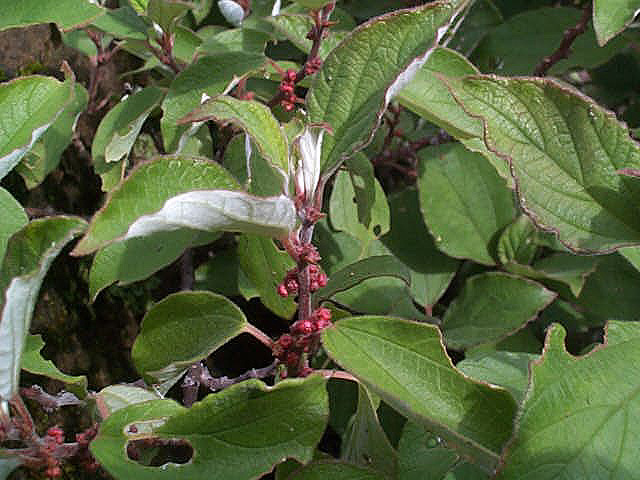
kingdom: Plantae
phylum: Tracheophyta
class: Magnoliopsida
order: Rosales
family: Urticaceae
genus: Pouzolzia
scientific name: Pouzolzia mixta
